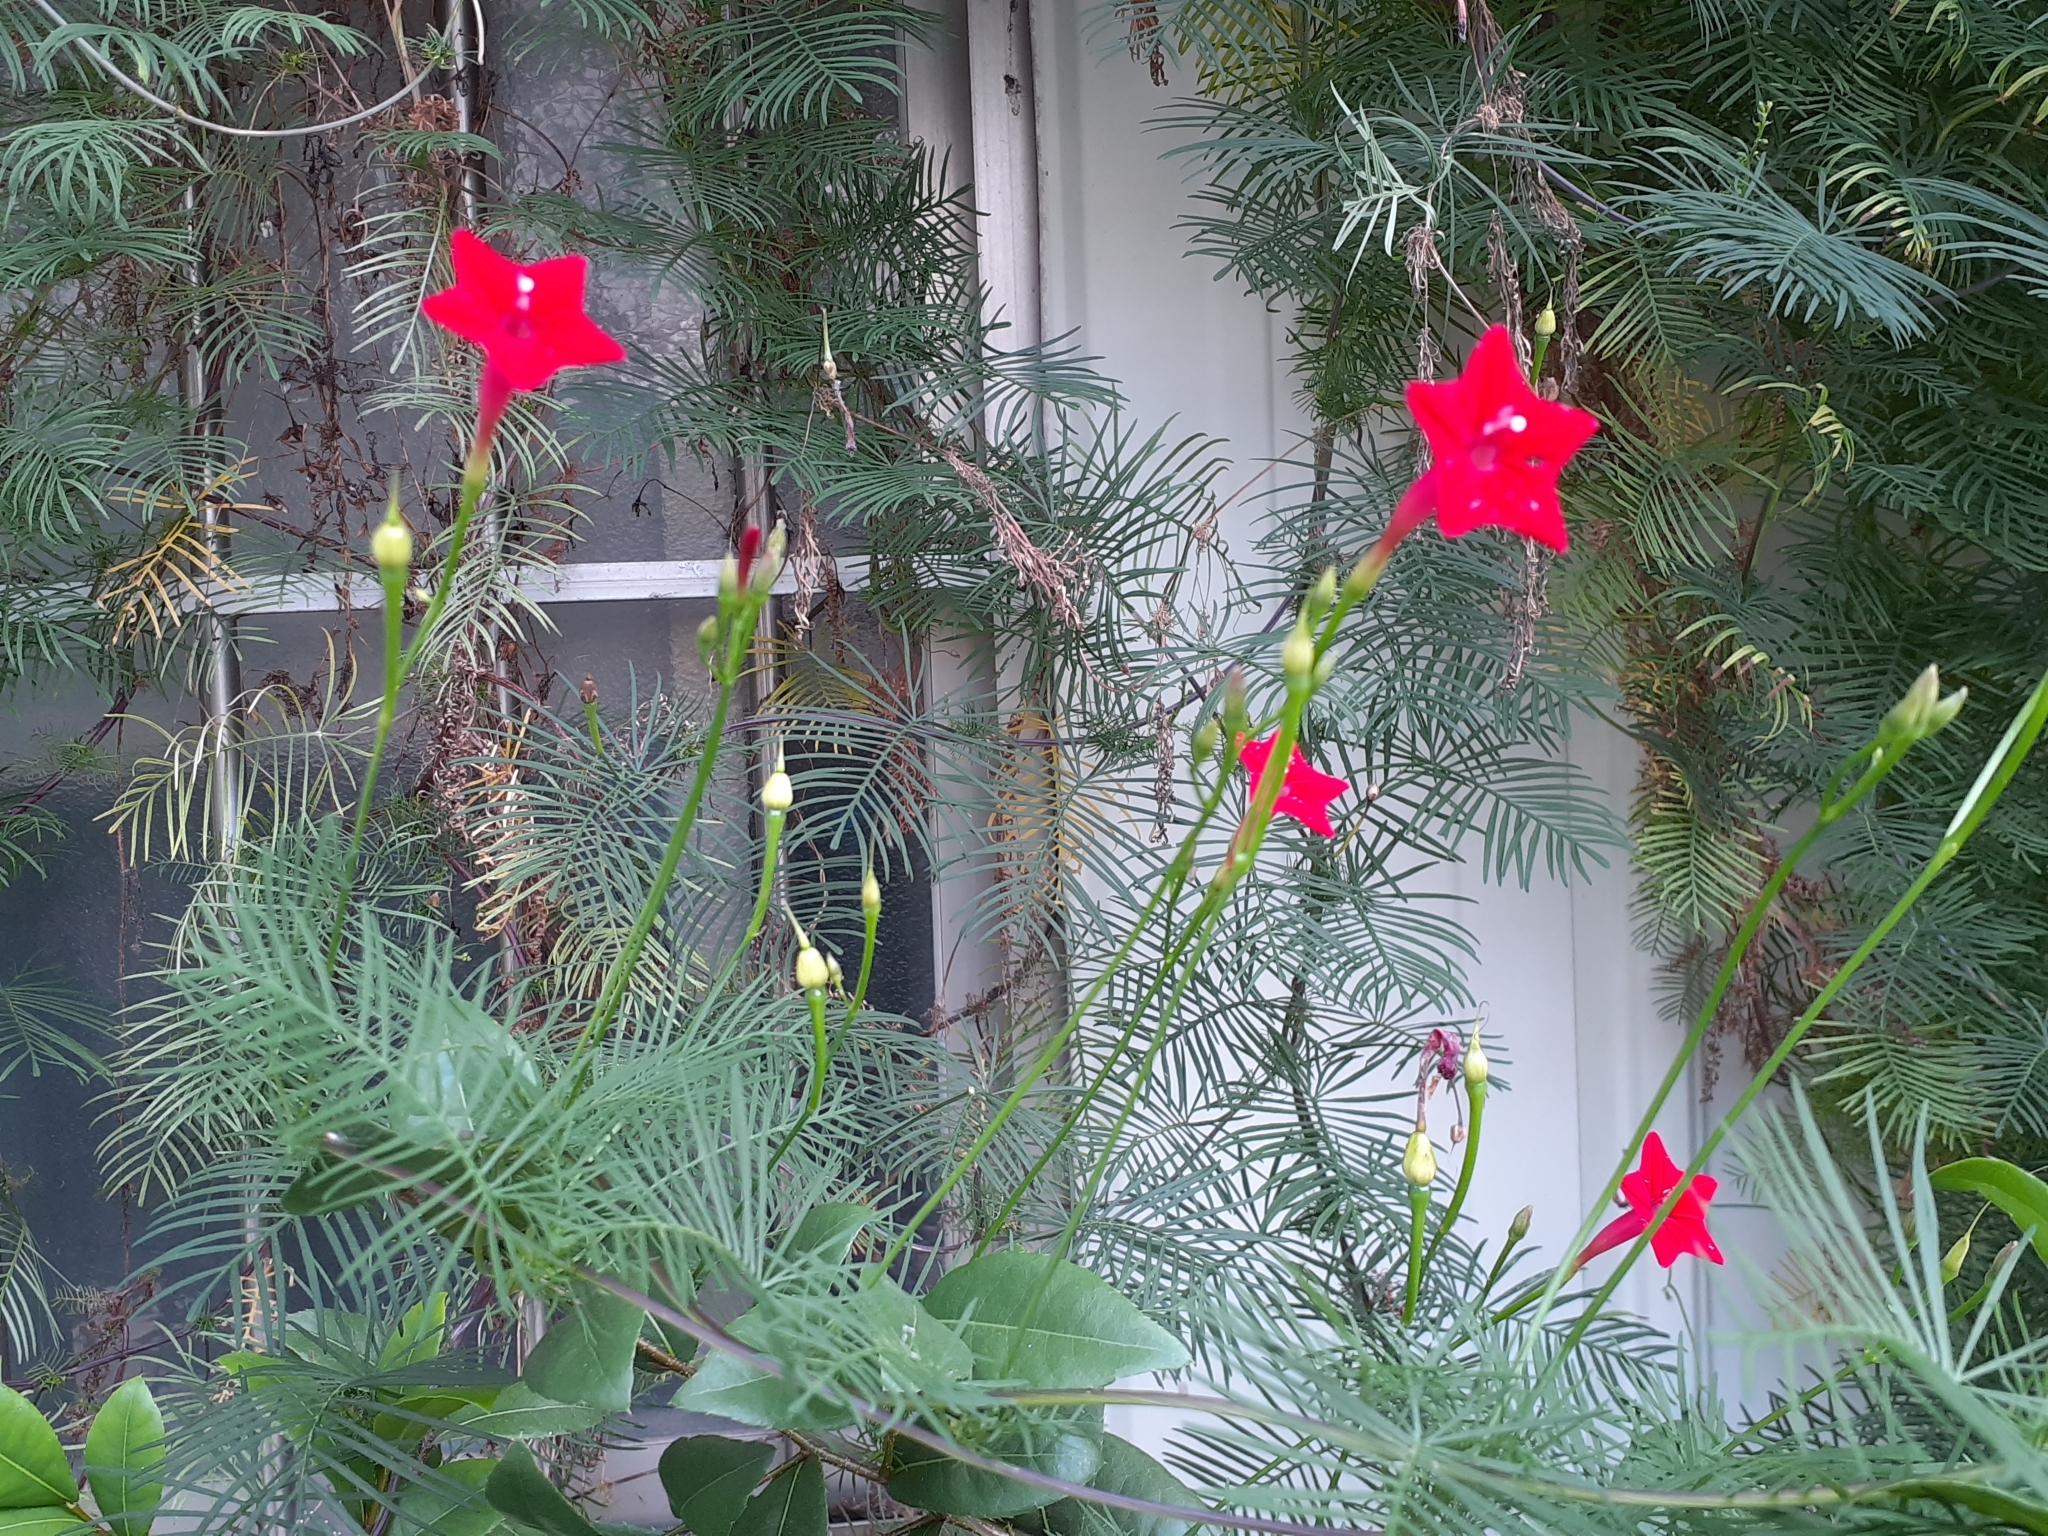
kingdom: Plantae
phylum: Tracheophyta
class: Magnoliopsida
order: Solanales
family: Convolvulaceae
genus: Ipomoea
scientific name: Ipomoea quamoclit
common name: Cypress vine
